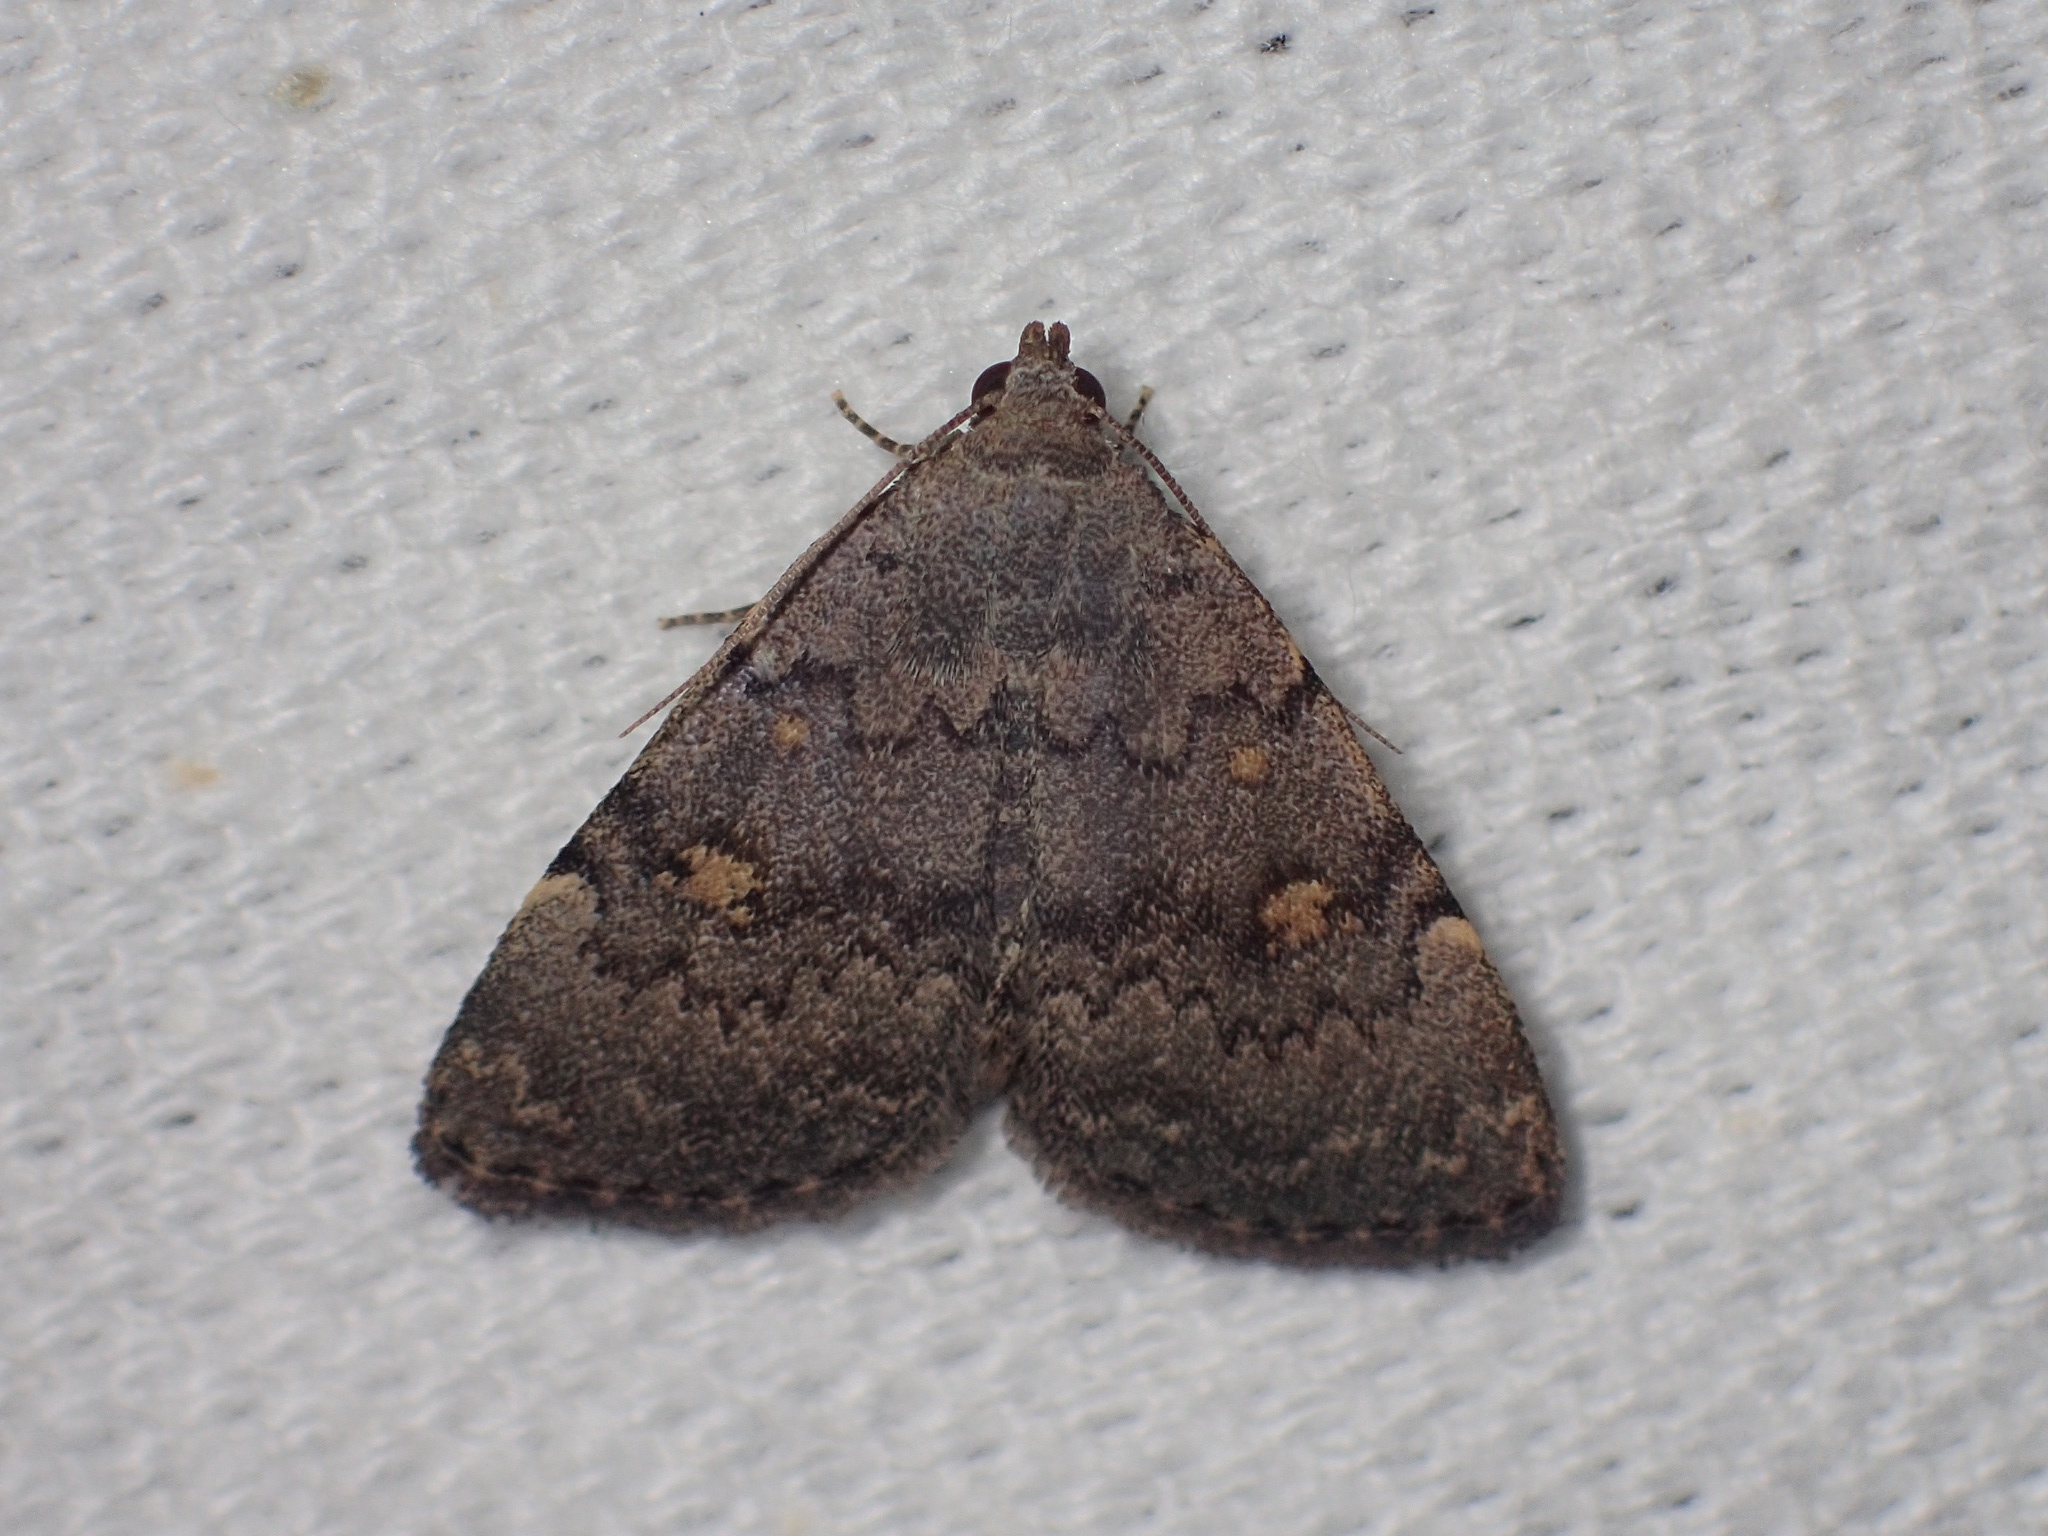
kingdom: Animalia
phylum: Arthropoda
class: Insecta
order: Lepidoptera
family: Erebidae
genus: Idia
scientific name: Idia aemula
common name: Common idia moth
